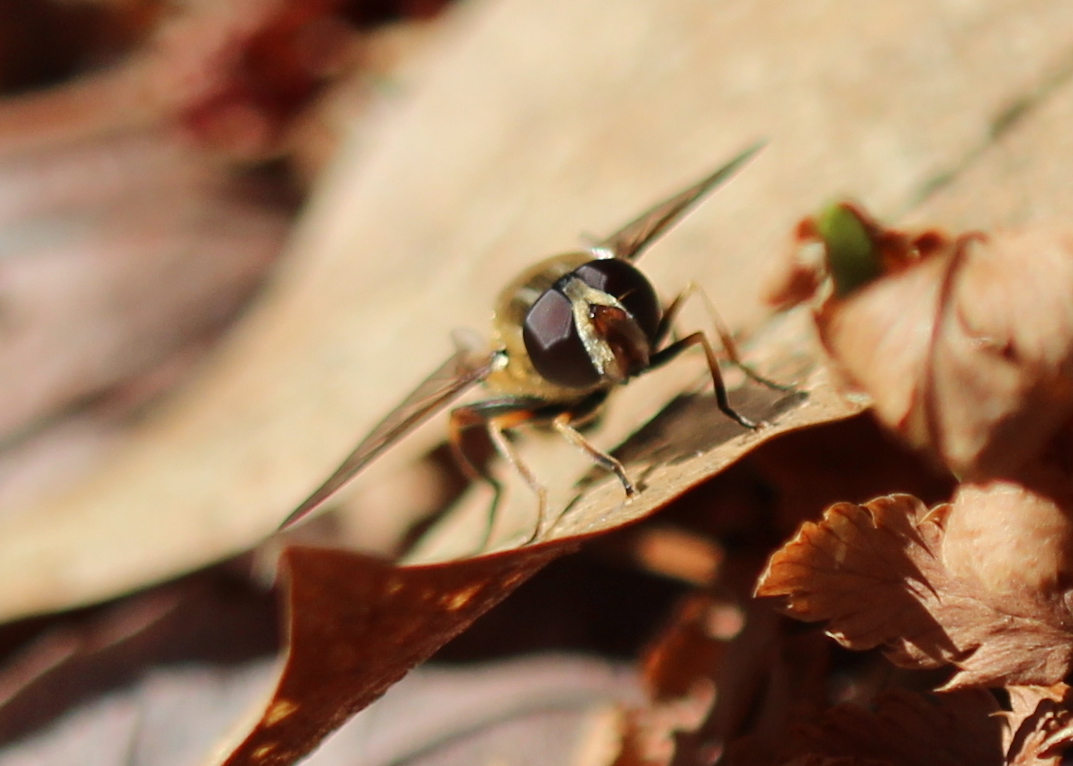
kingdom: Animalia
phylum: Arthropoda
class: Insecta
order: Diptera
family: Syrphidae
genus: Helophilus
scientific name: Helophilus fasciatus
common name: Narrow-headed marsh fly
